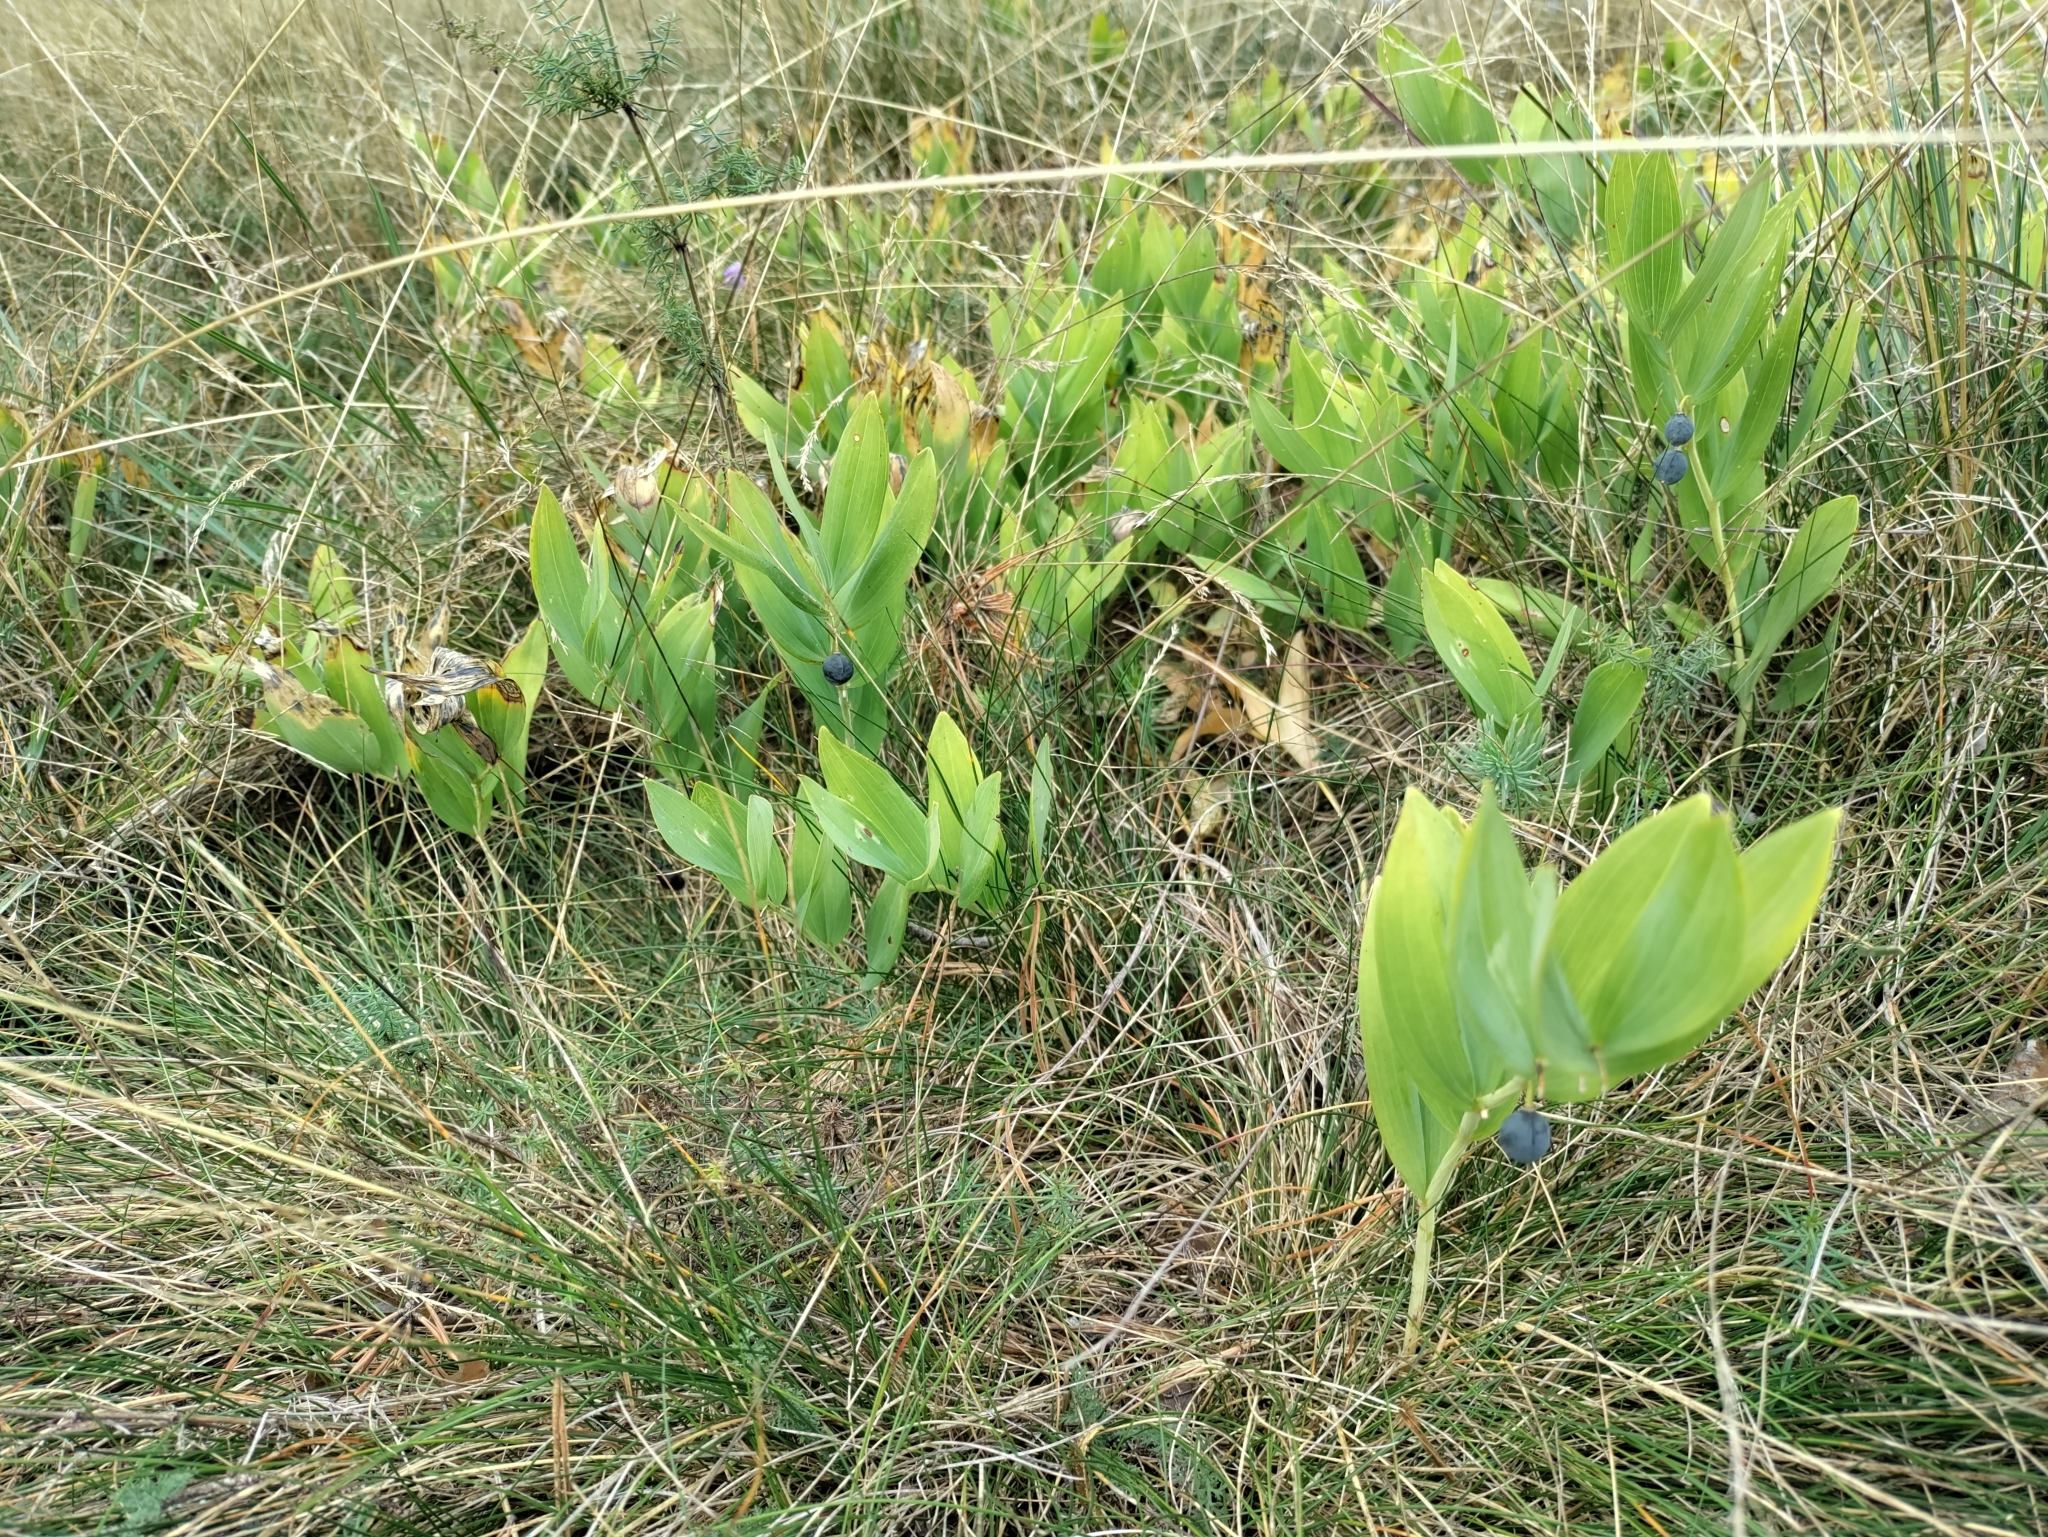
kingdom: Plantae
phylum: Tracheophyta
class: Liliopsida
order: Asparagales
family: Asparagaceae
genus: Polygonatum
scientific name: Polygonatum odoratum
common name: Angular solomon's-seal
